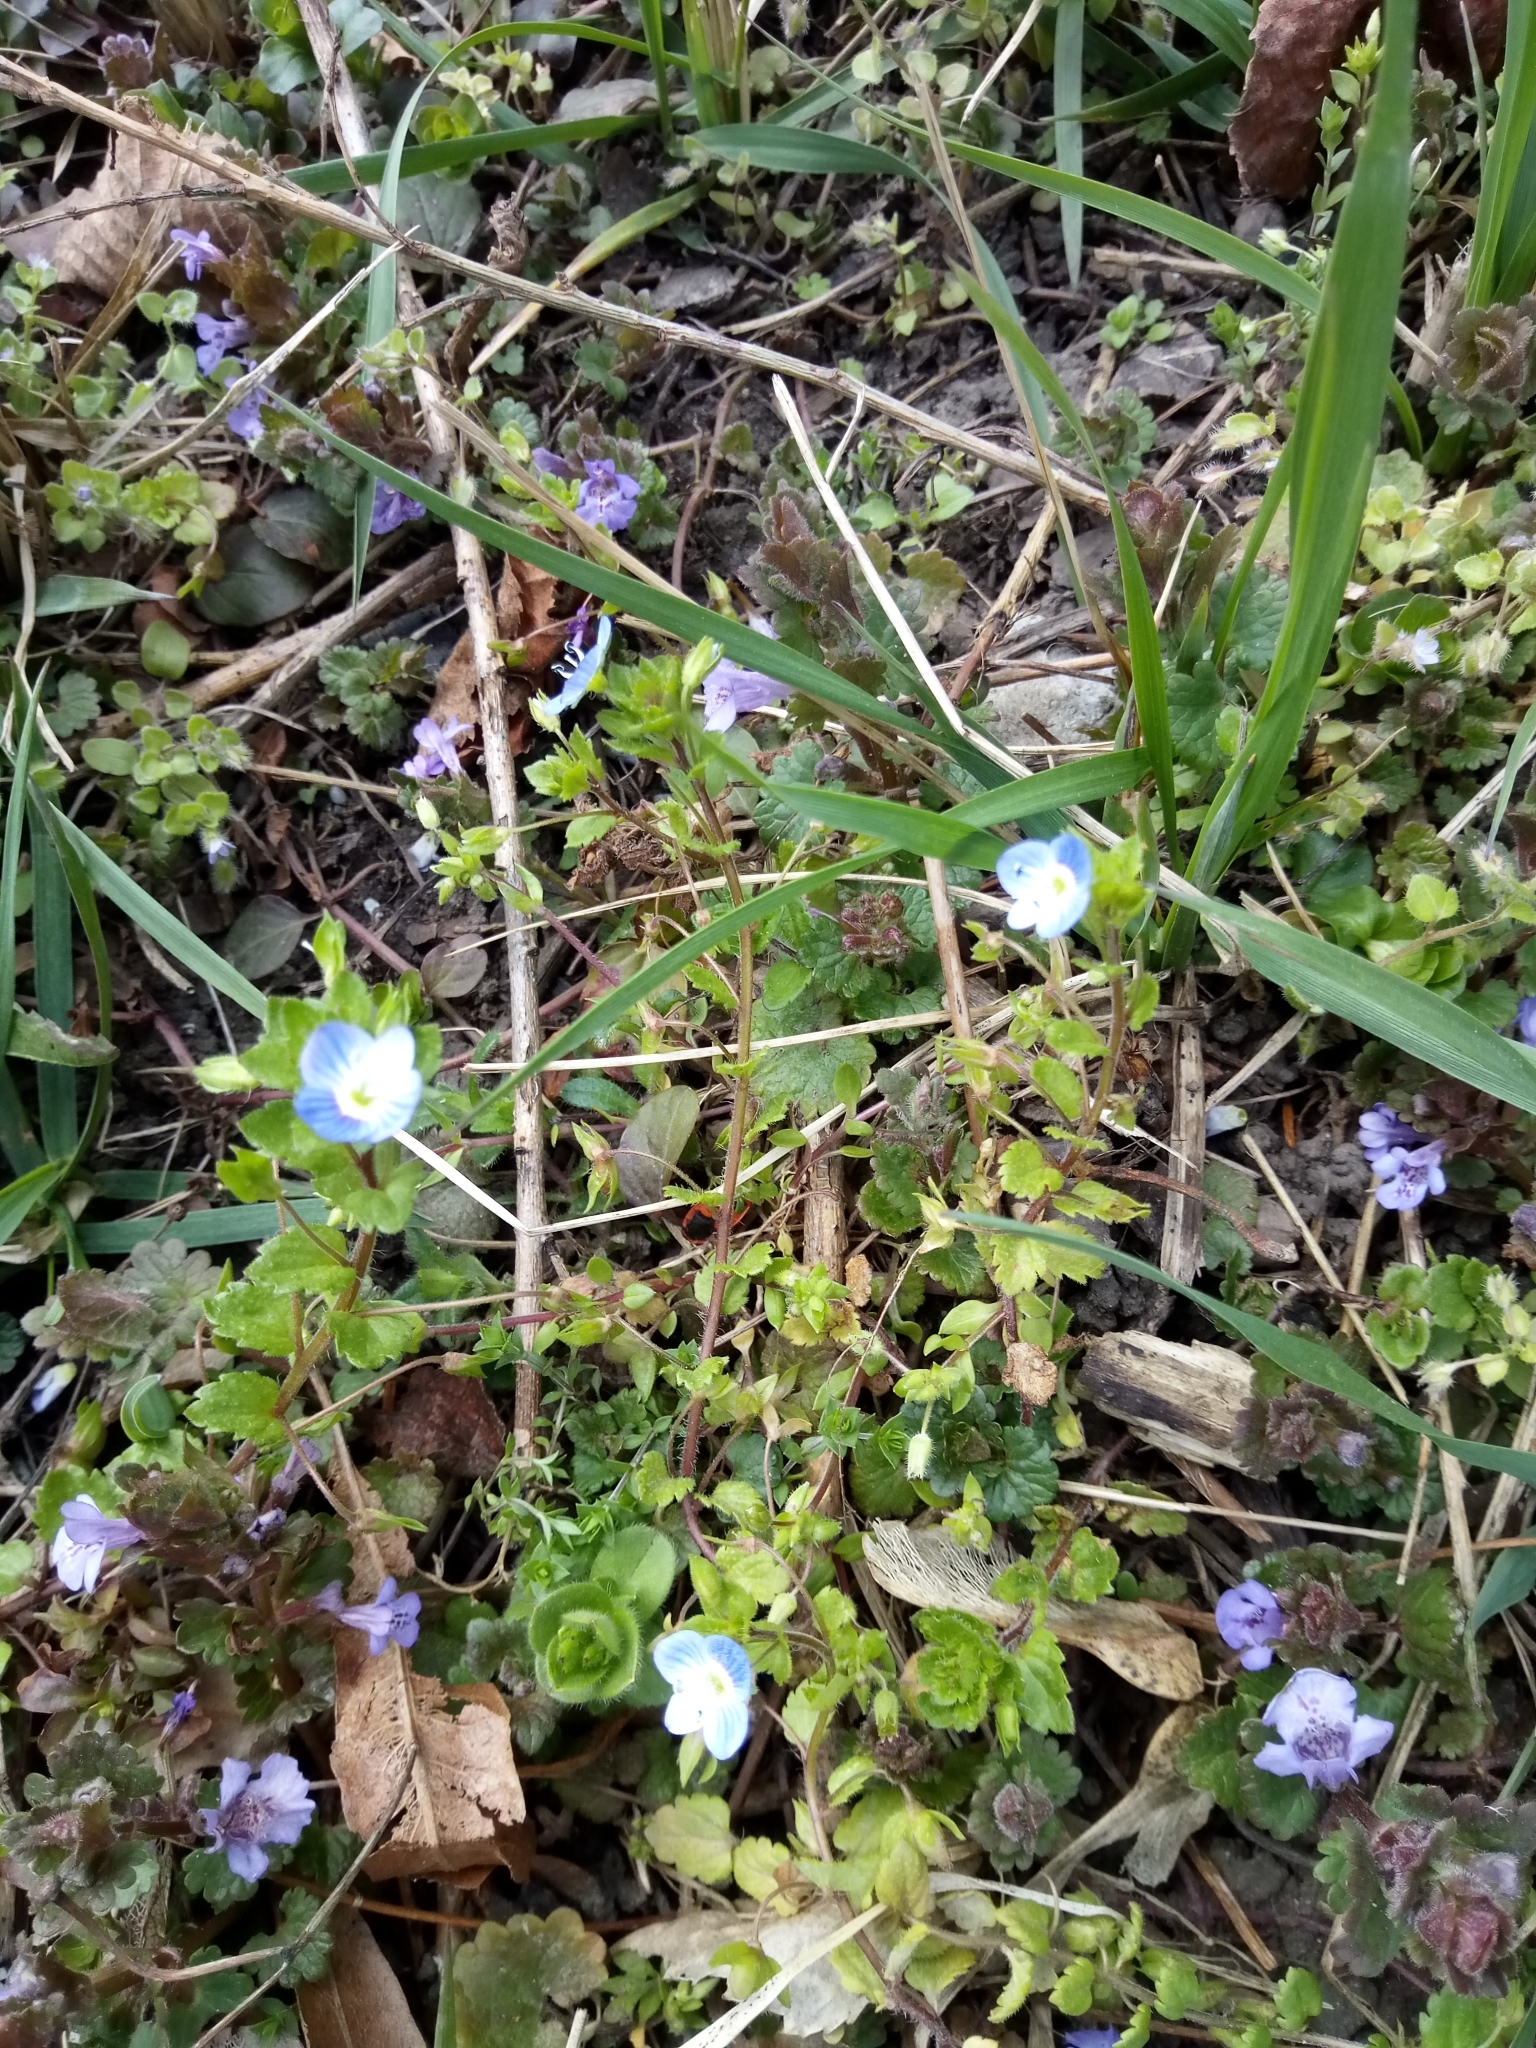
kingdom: Plantae
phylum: Tracheophyta
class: Magnoliopsida
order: Lamiales
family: Plantaginaceae
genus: Veronica
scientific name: Veronica persica
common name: Common field-speedwell
